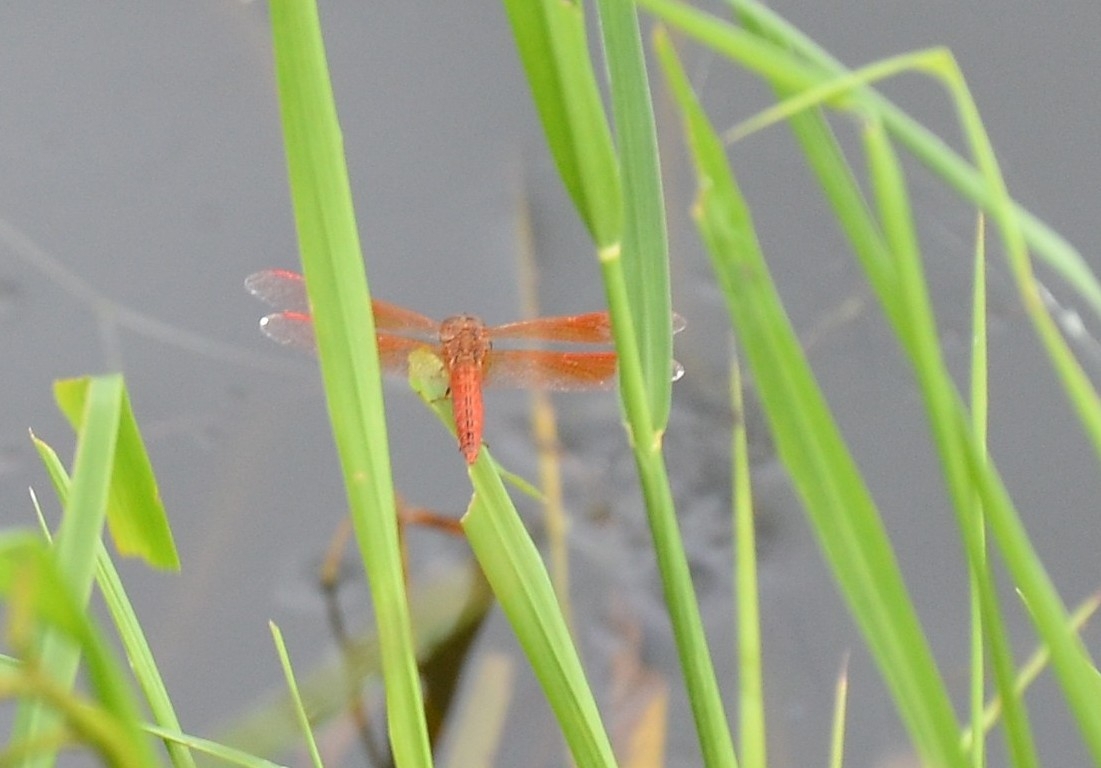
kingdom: Animalia
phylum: Arthropoda
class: Insecta
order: Odonata
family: Libellulidae
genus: Brachythemis
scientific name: Brachythemis contaminata
